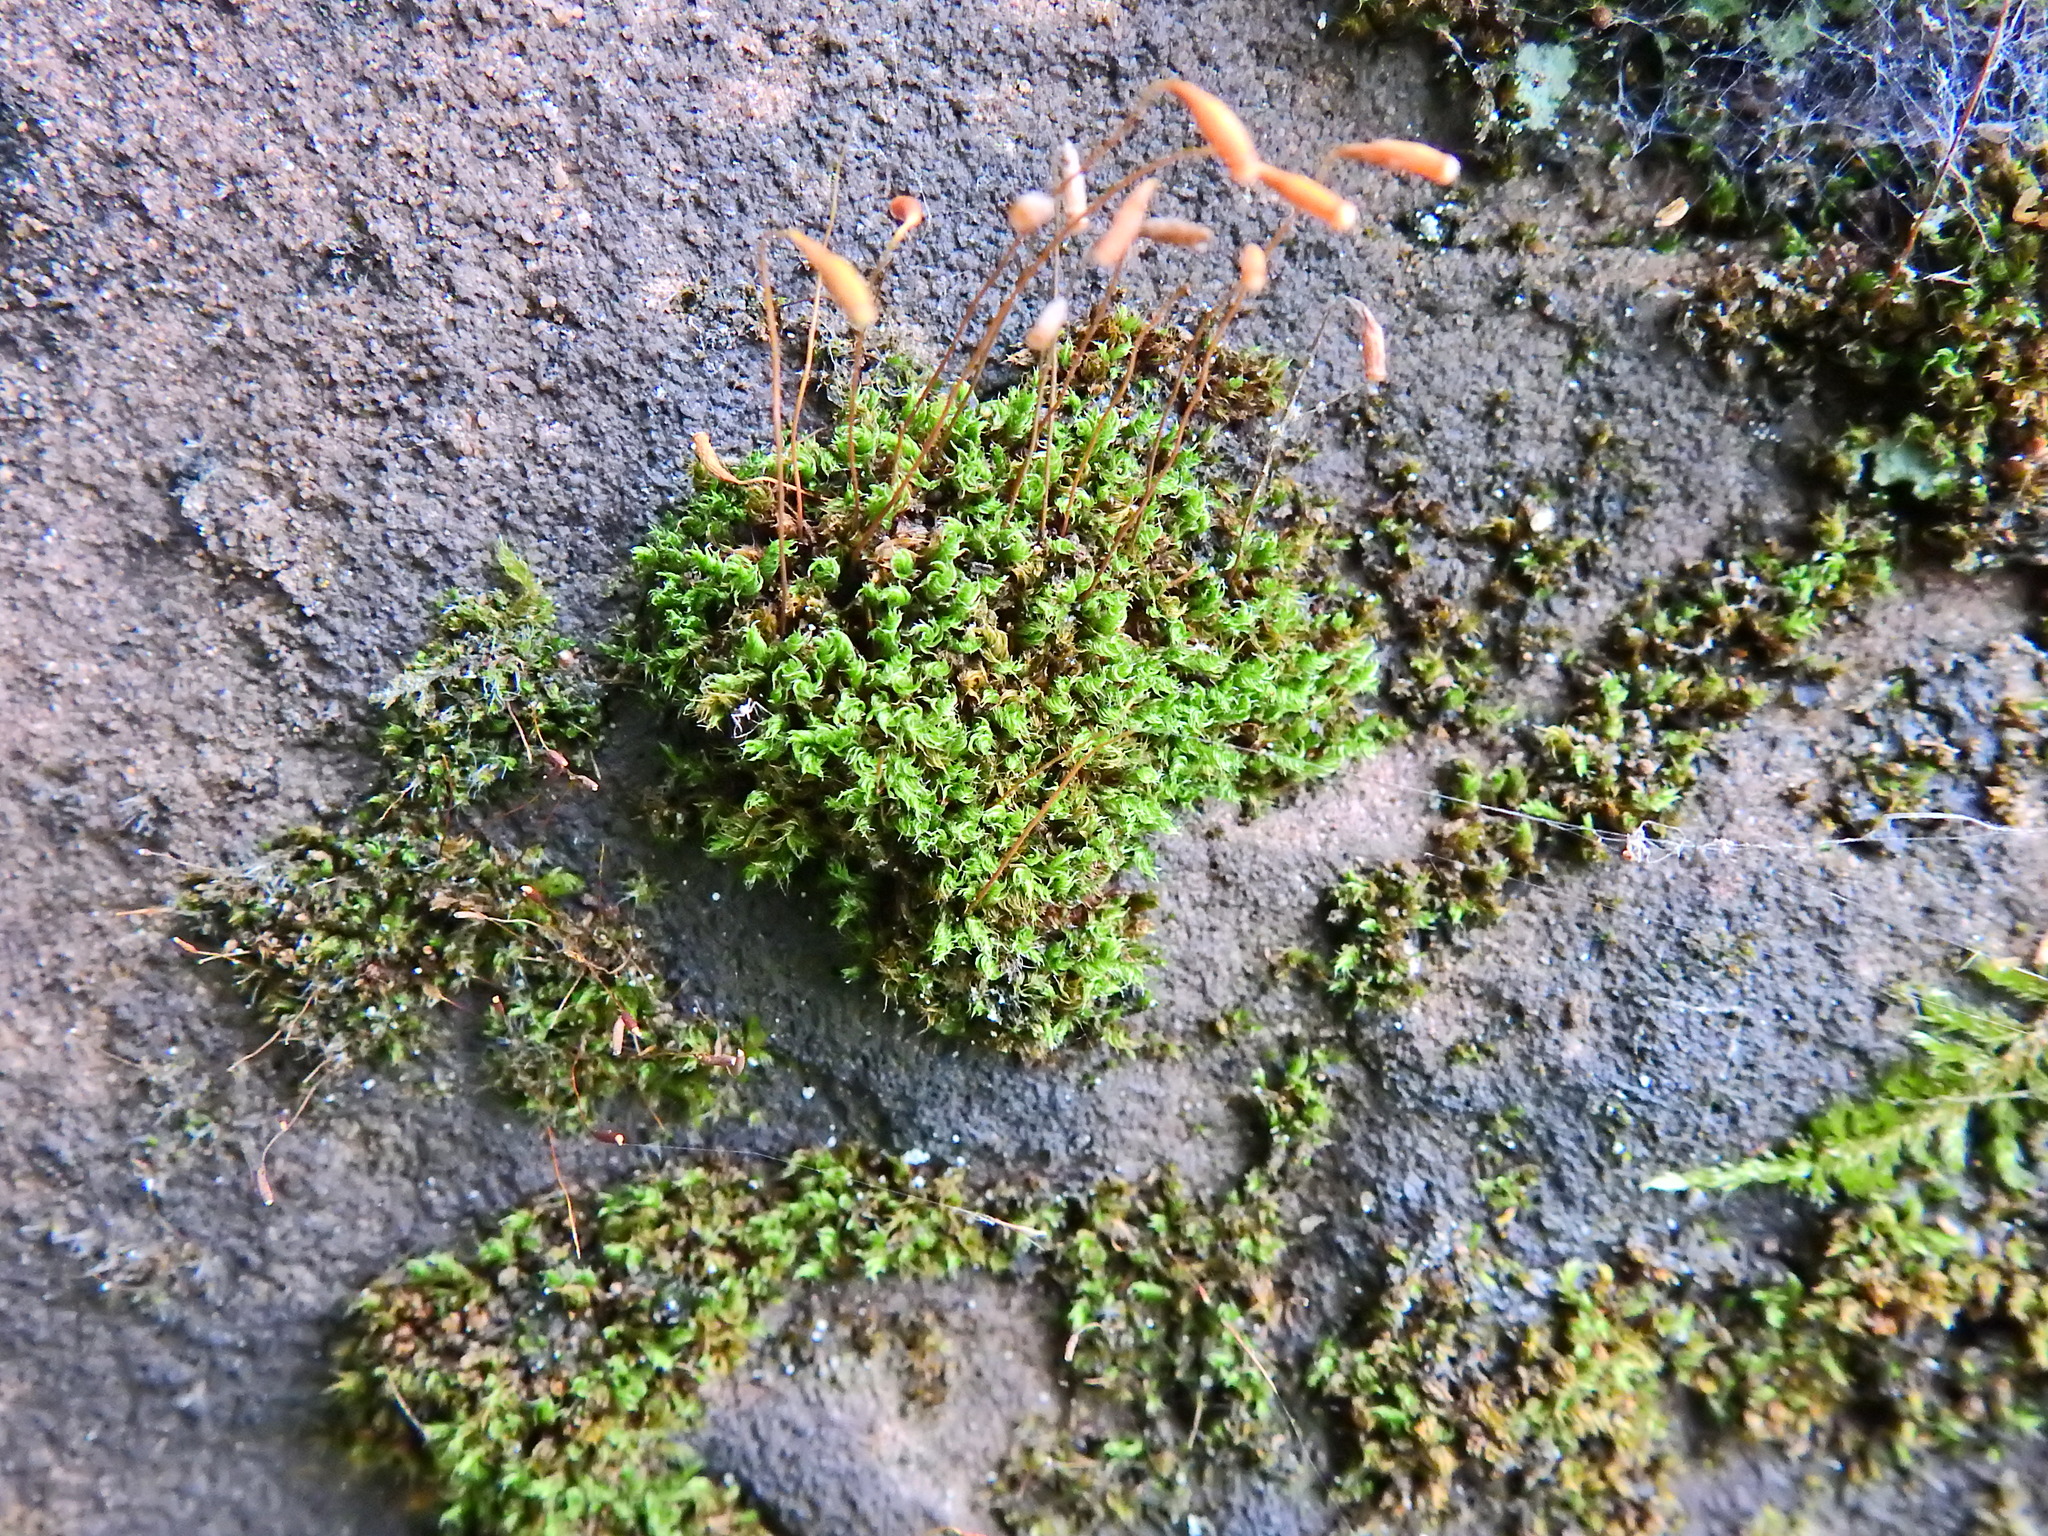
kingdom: Plantae
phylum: Bryophyta
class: Bryopsida
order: Bryales
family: Bryaceae
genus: Rosulabryum
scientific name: Rosulabryum capillare
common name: Capillary thread-moss
